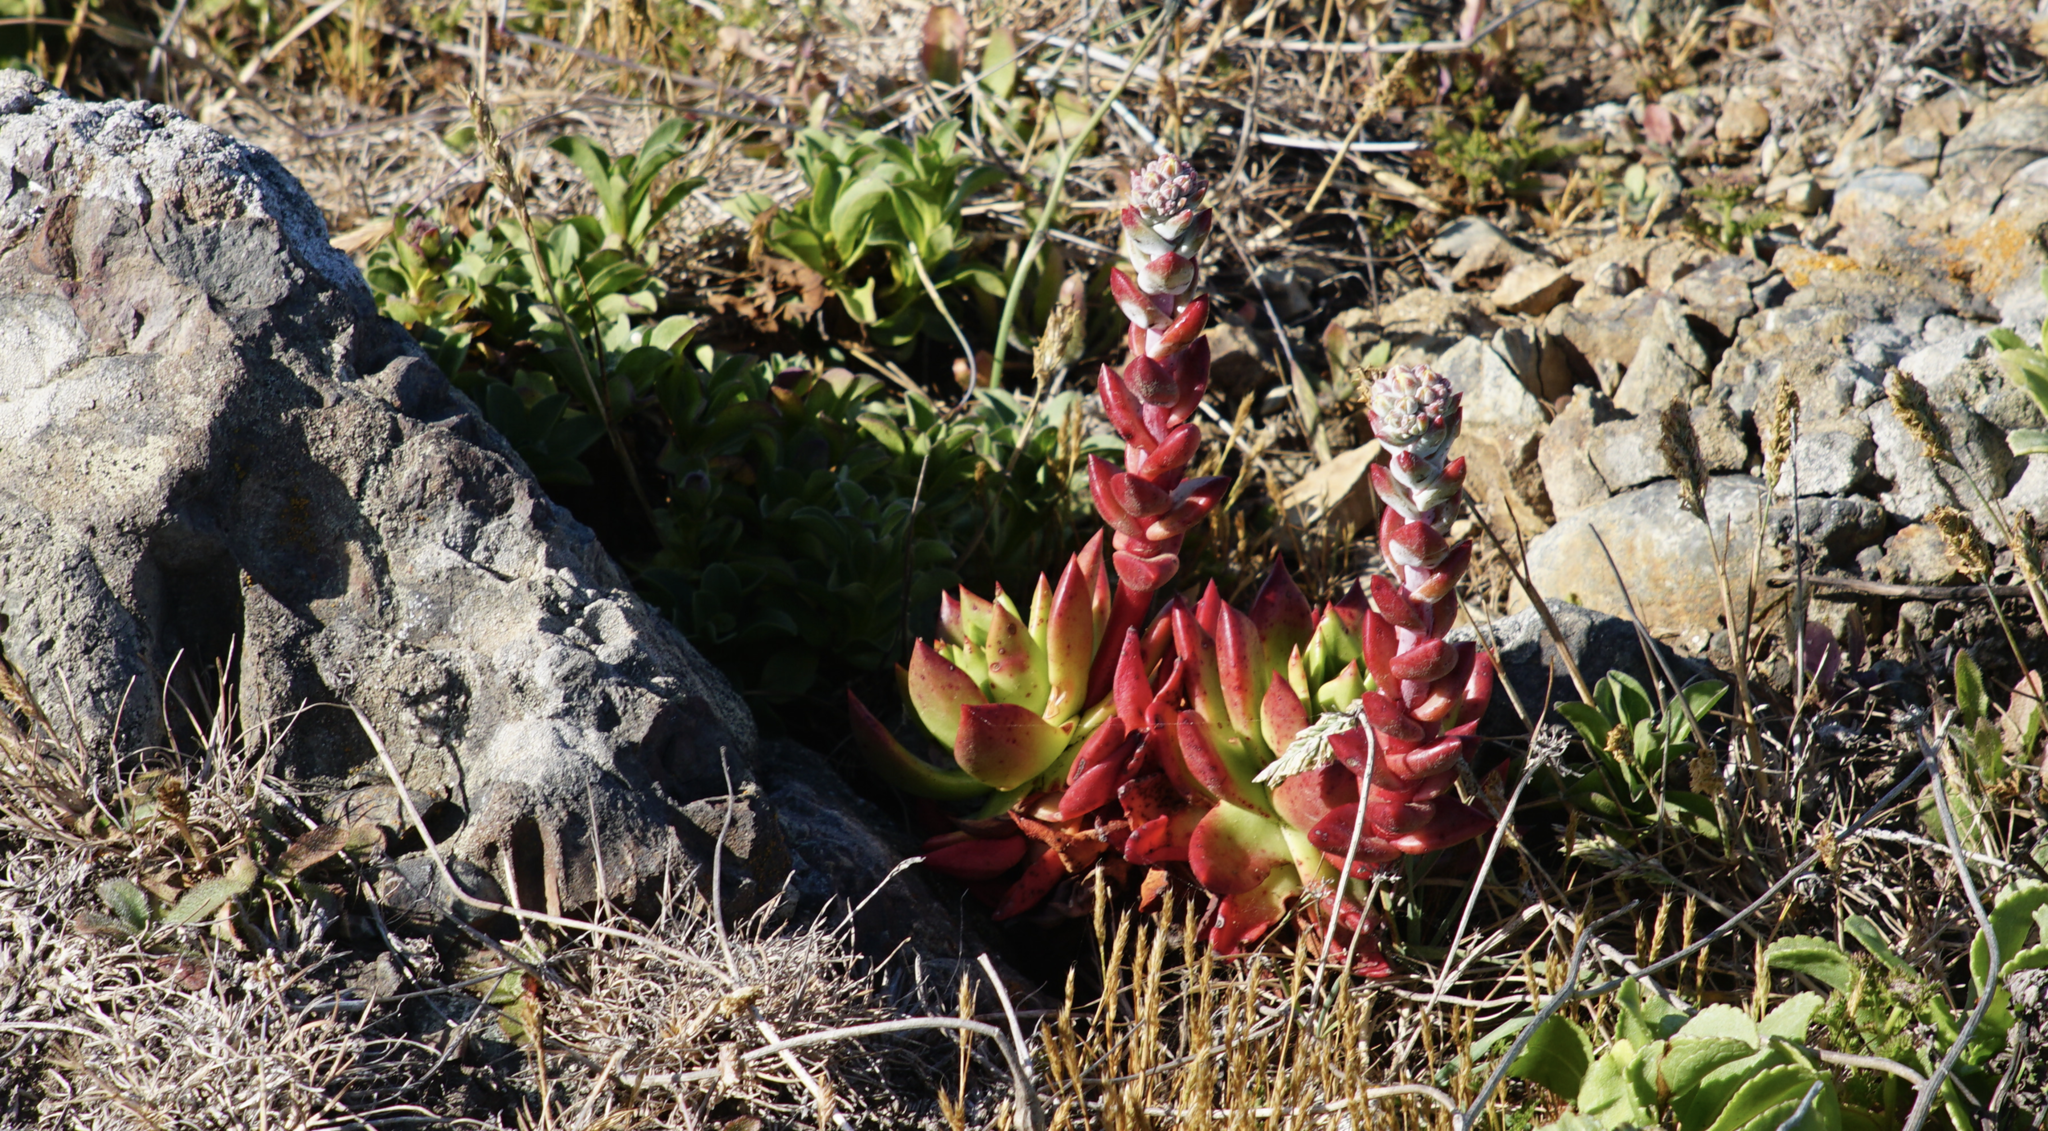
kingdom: Plantae
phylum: Tracheophyta
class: Magnoliopsida
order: Saxifragales
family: Crassulaceae
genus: Dudleya
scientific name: Dudleya farinosa
